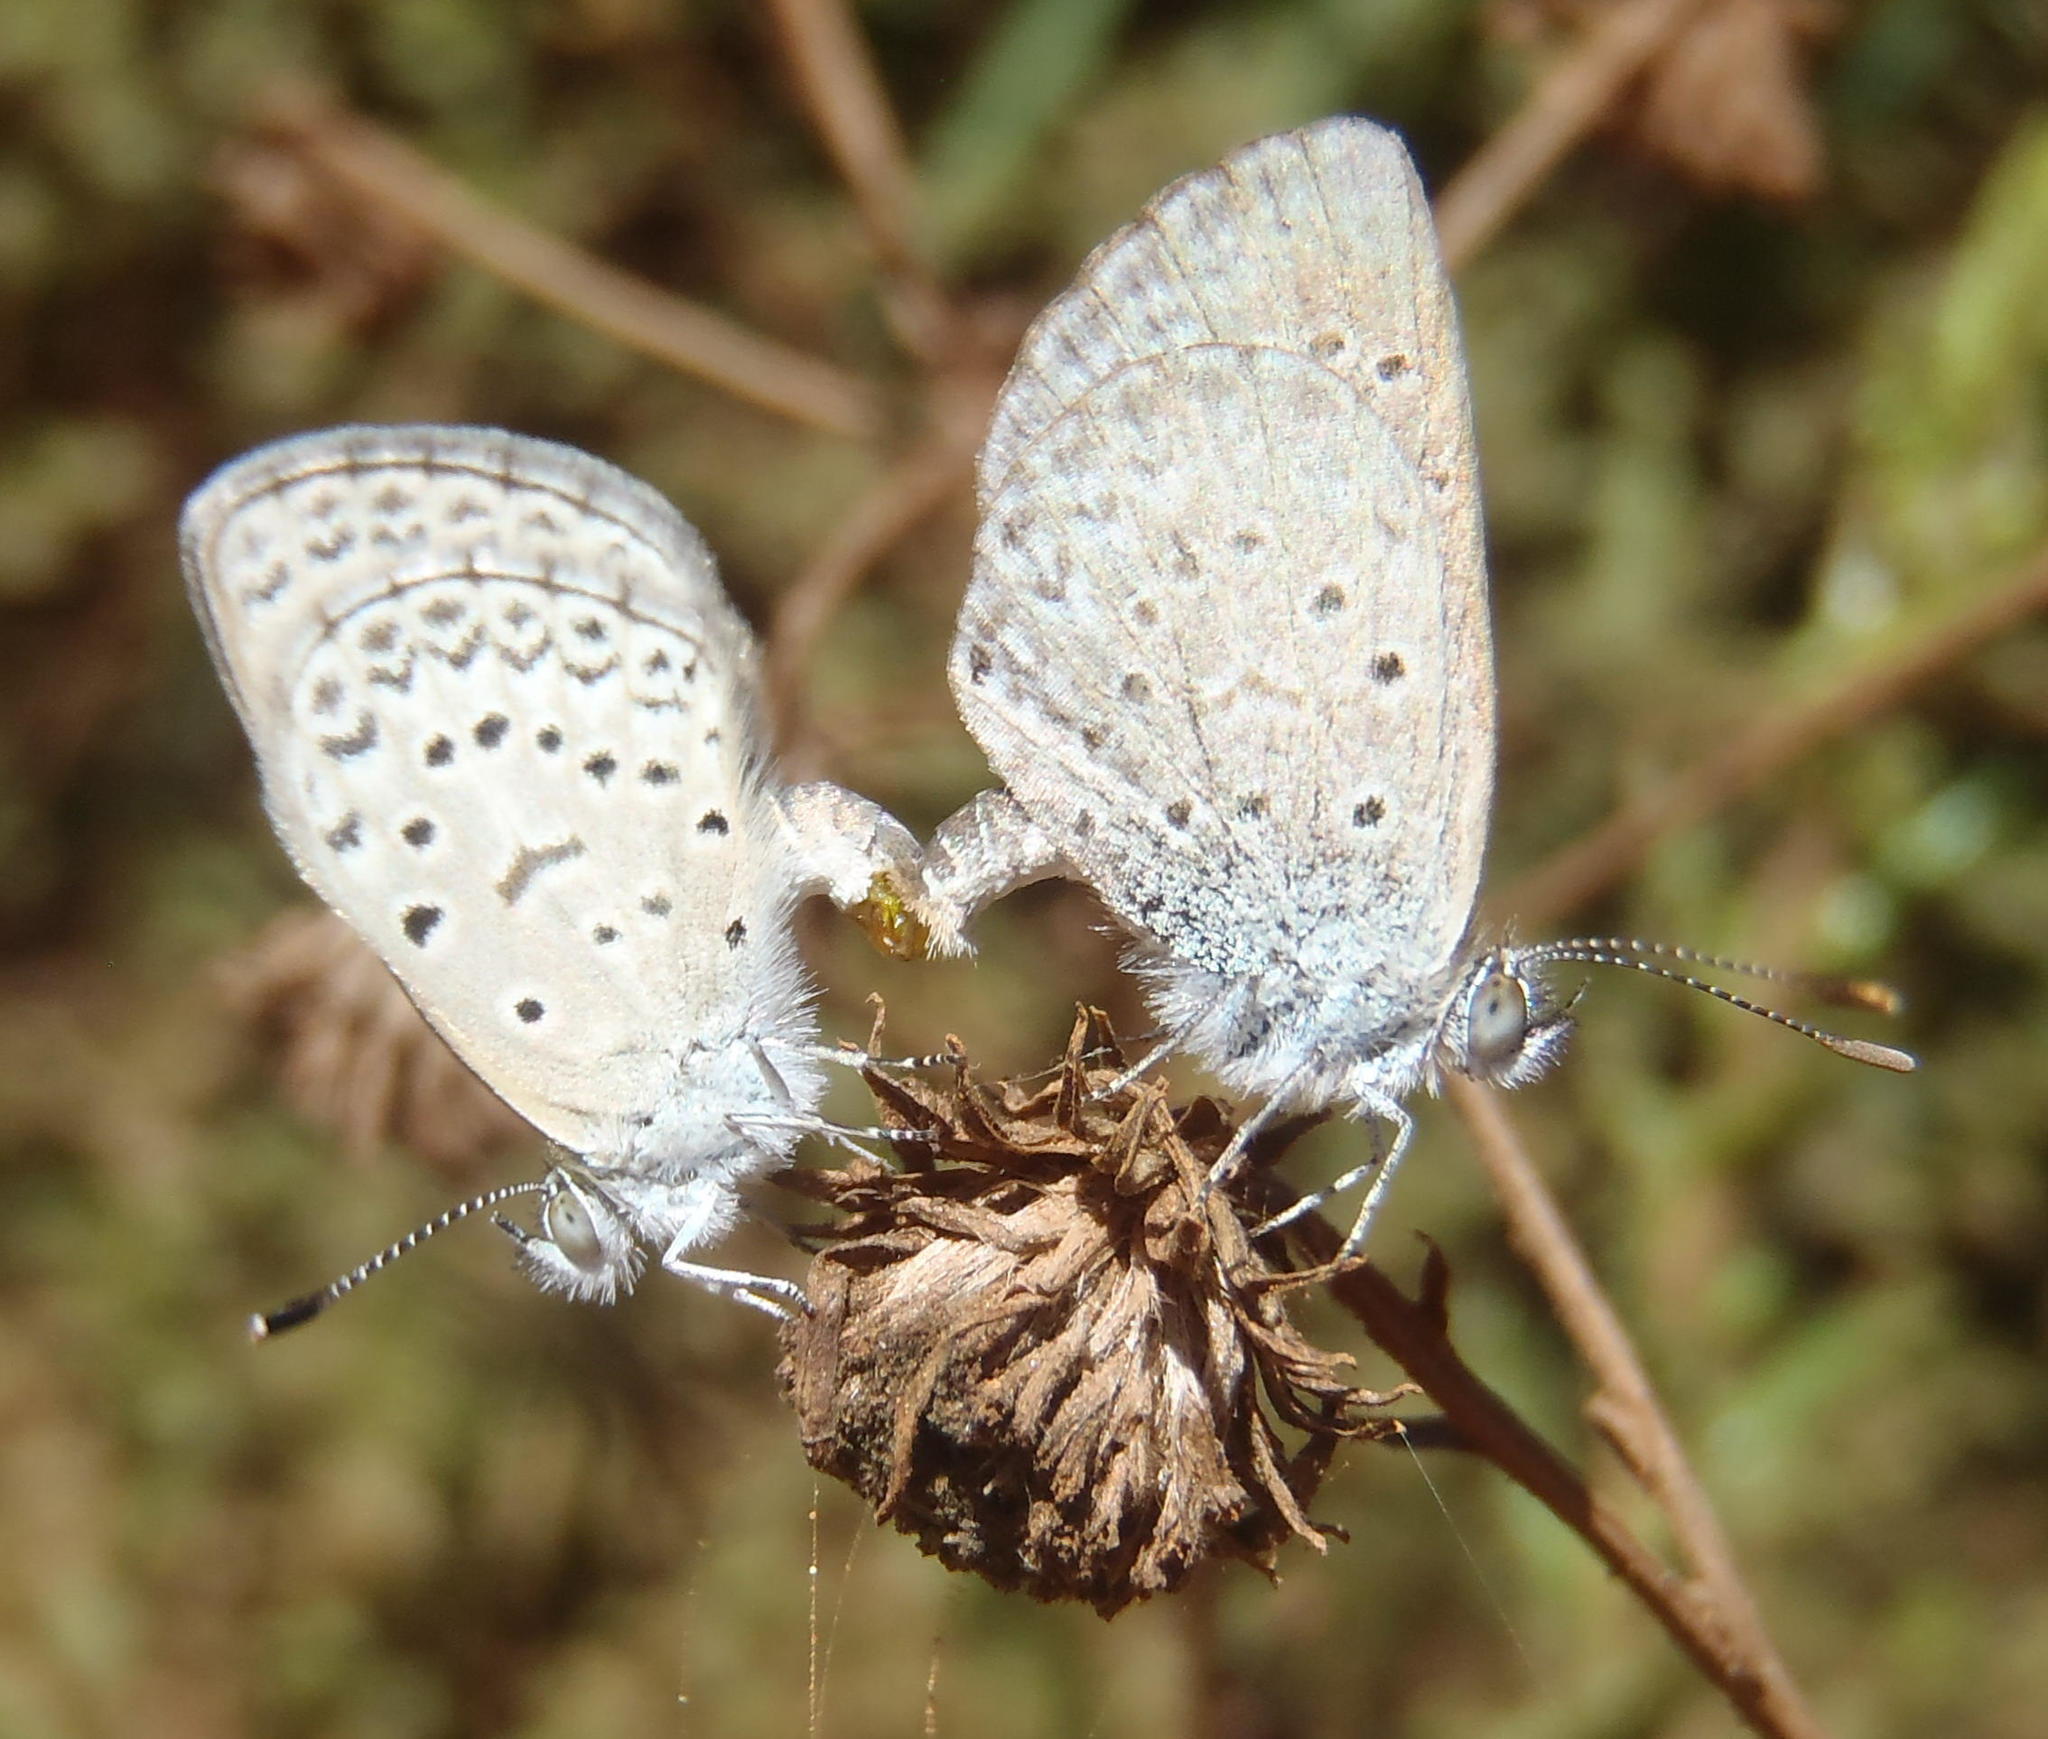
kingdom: Animalia
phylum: Arthropoda
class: Insecta
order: Lepidoptera
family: Lycaenidae
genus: Zizeeria
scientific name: Zizeeria knysna
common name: African grass blue
